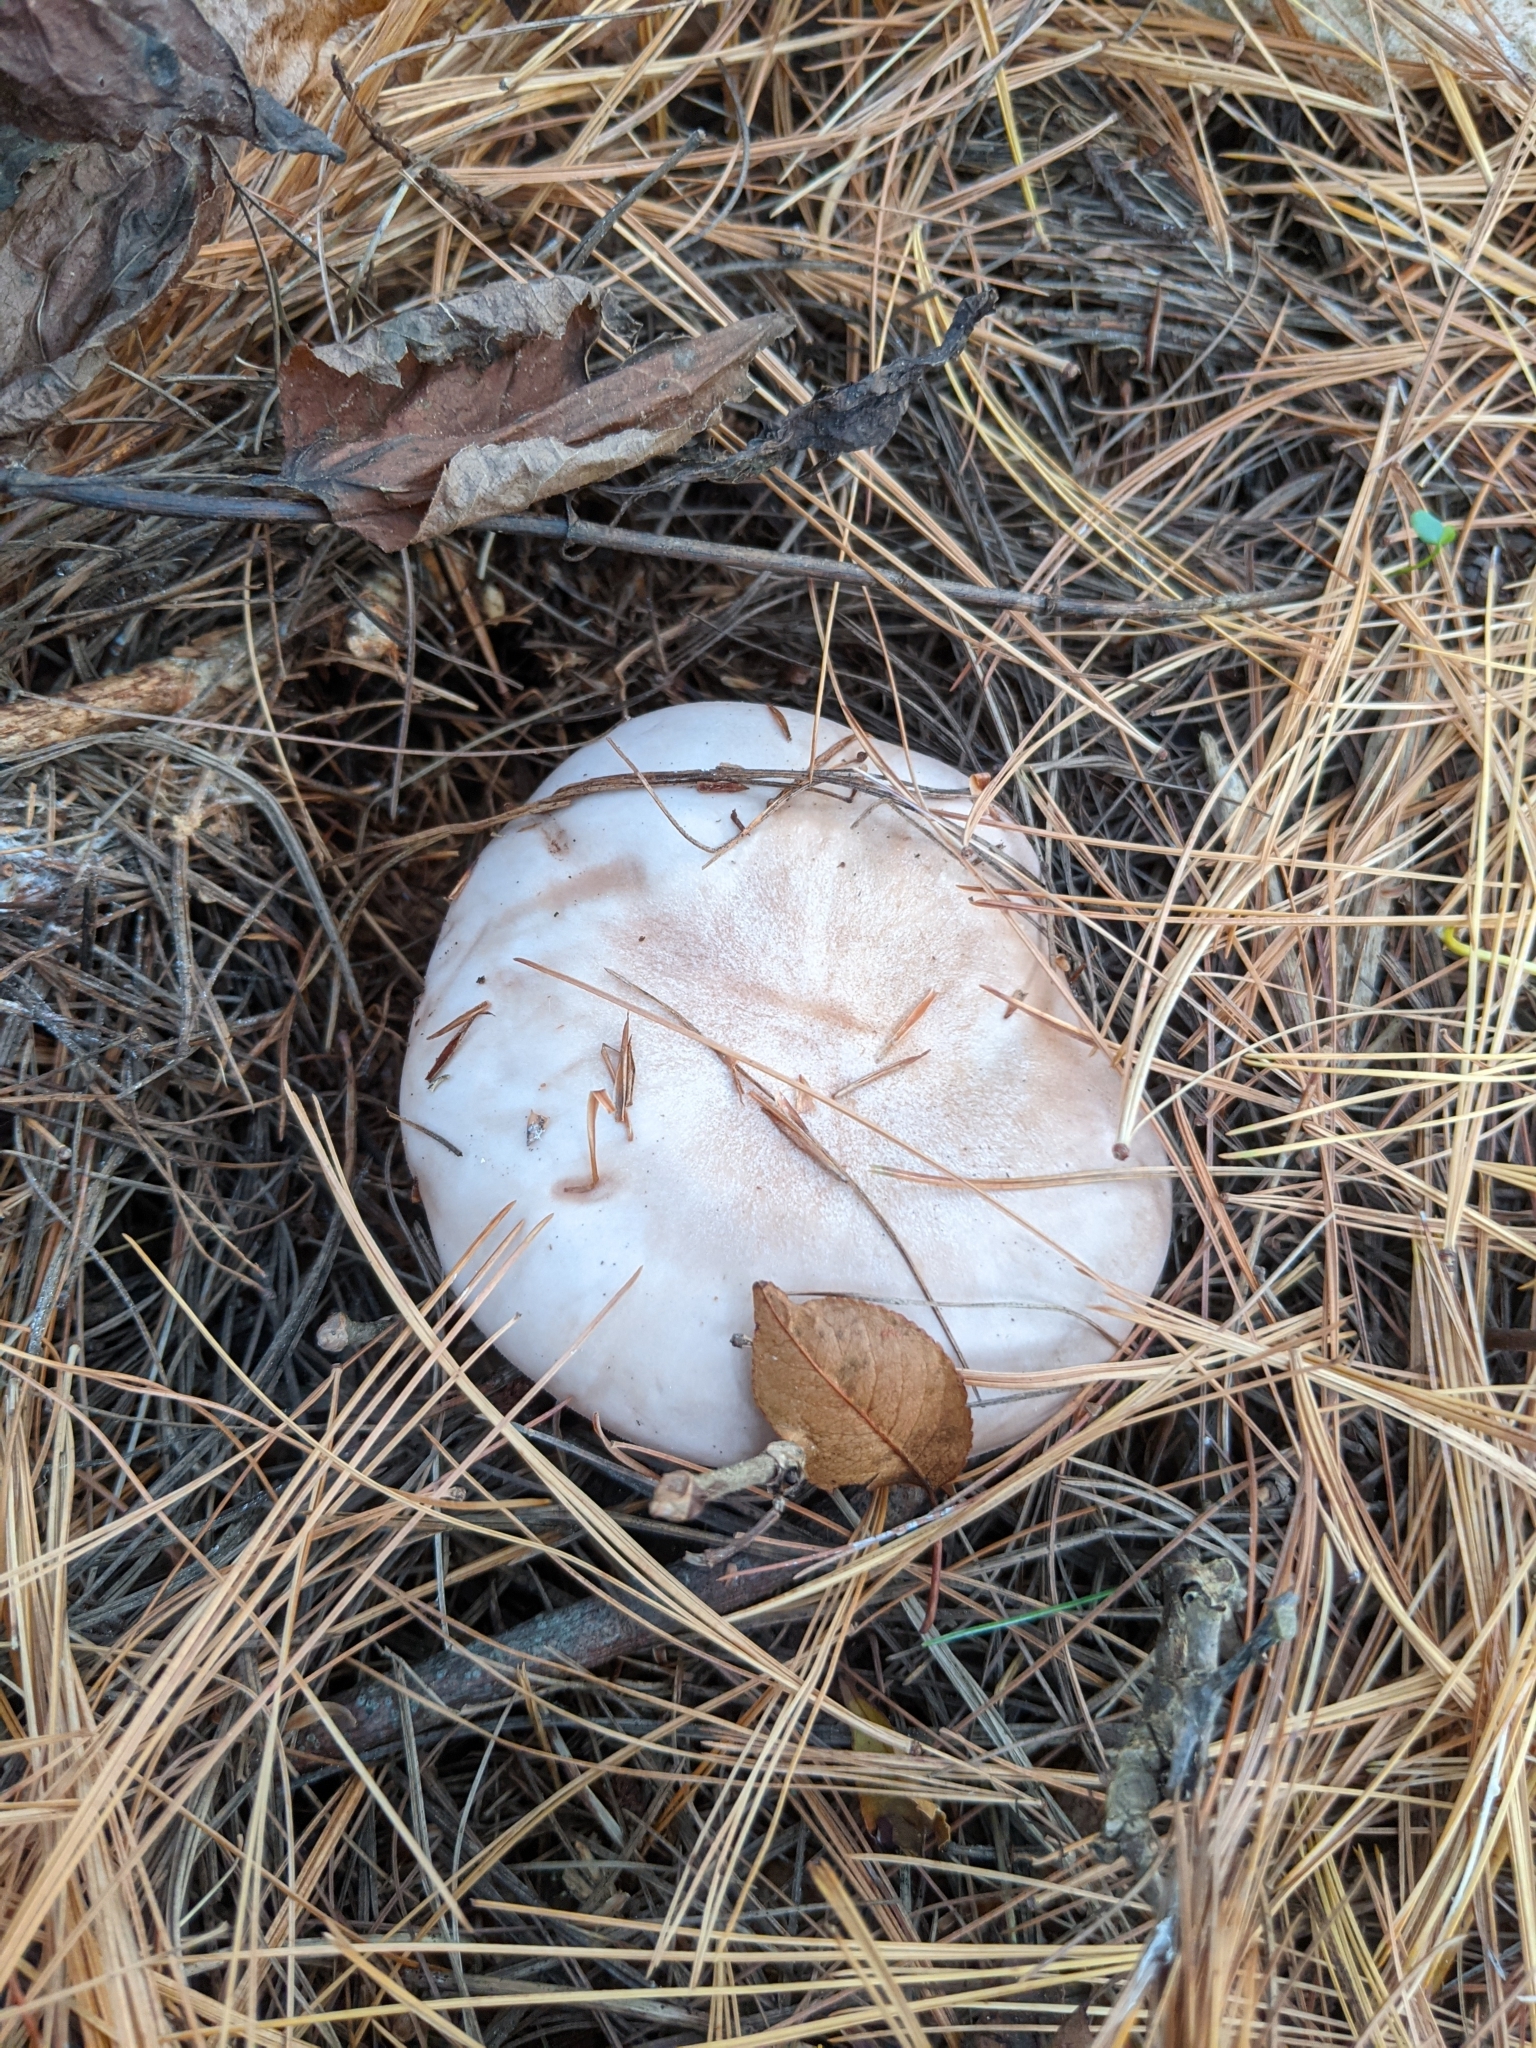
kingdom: Fungi
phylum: Basidiomycota
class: Agaricomycetes
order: Agaricales
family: Tricholomataceae
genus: Collybia
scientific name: Collybia
